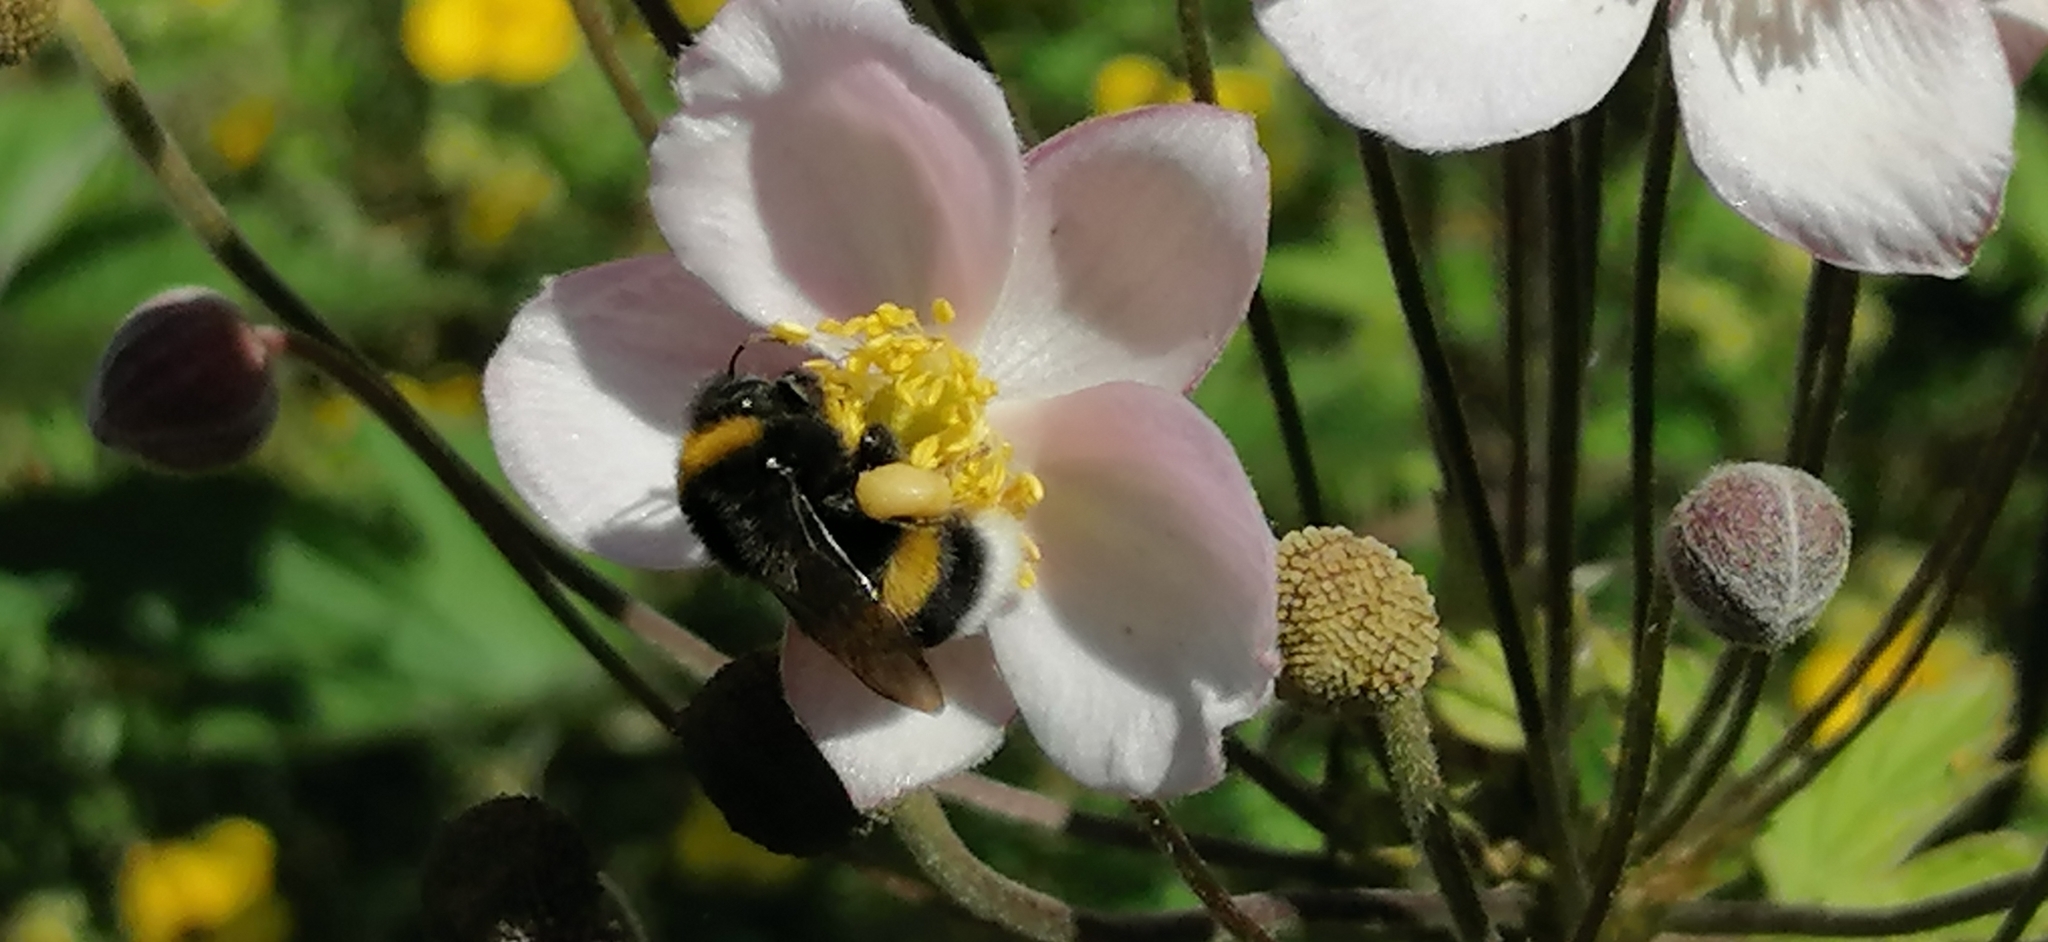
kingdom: Animalia
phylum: Arthropoda
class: Insecta
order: Hymenoptera
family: Apidae
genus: Bombus
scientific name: Bombus
